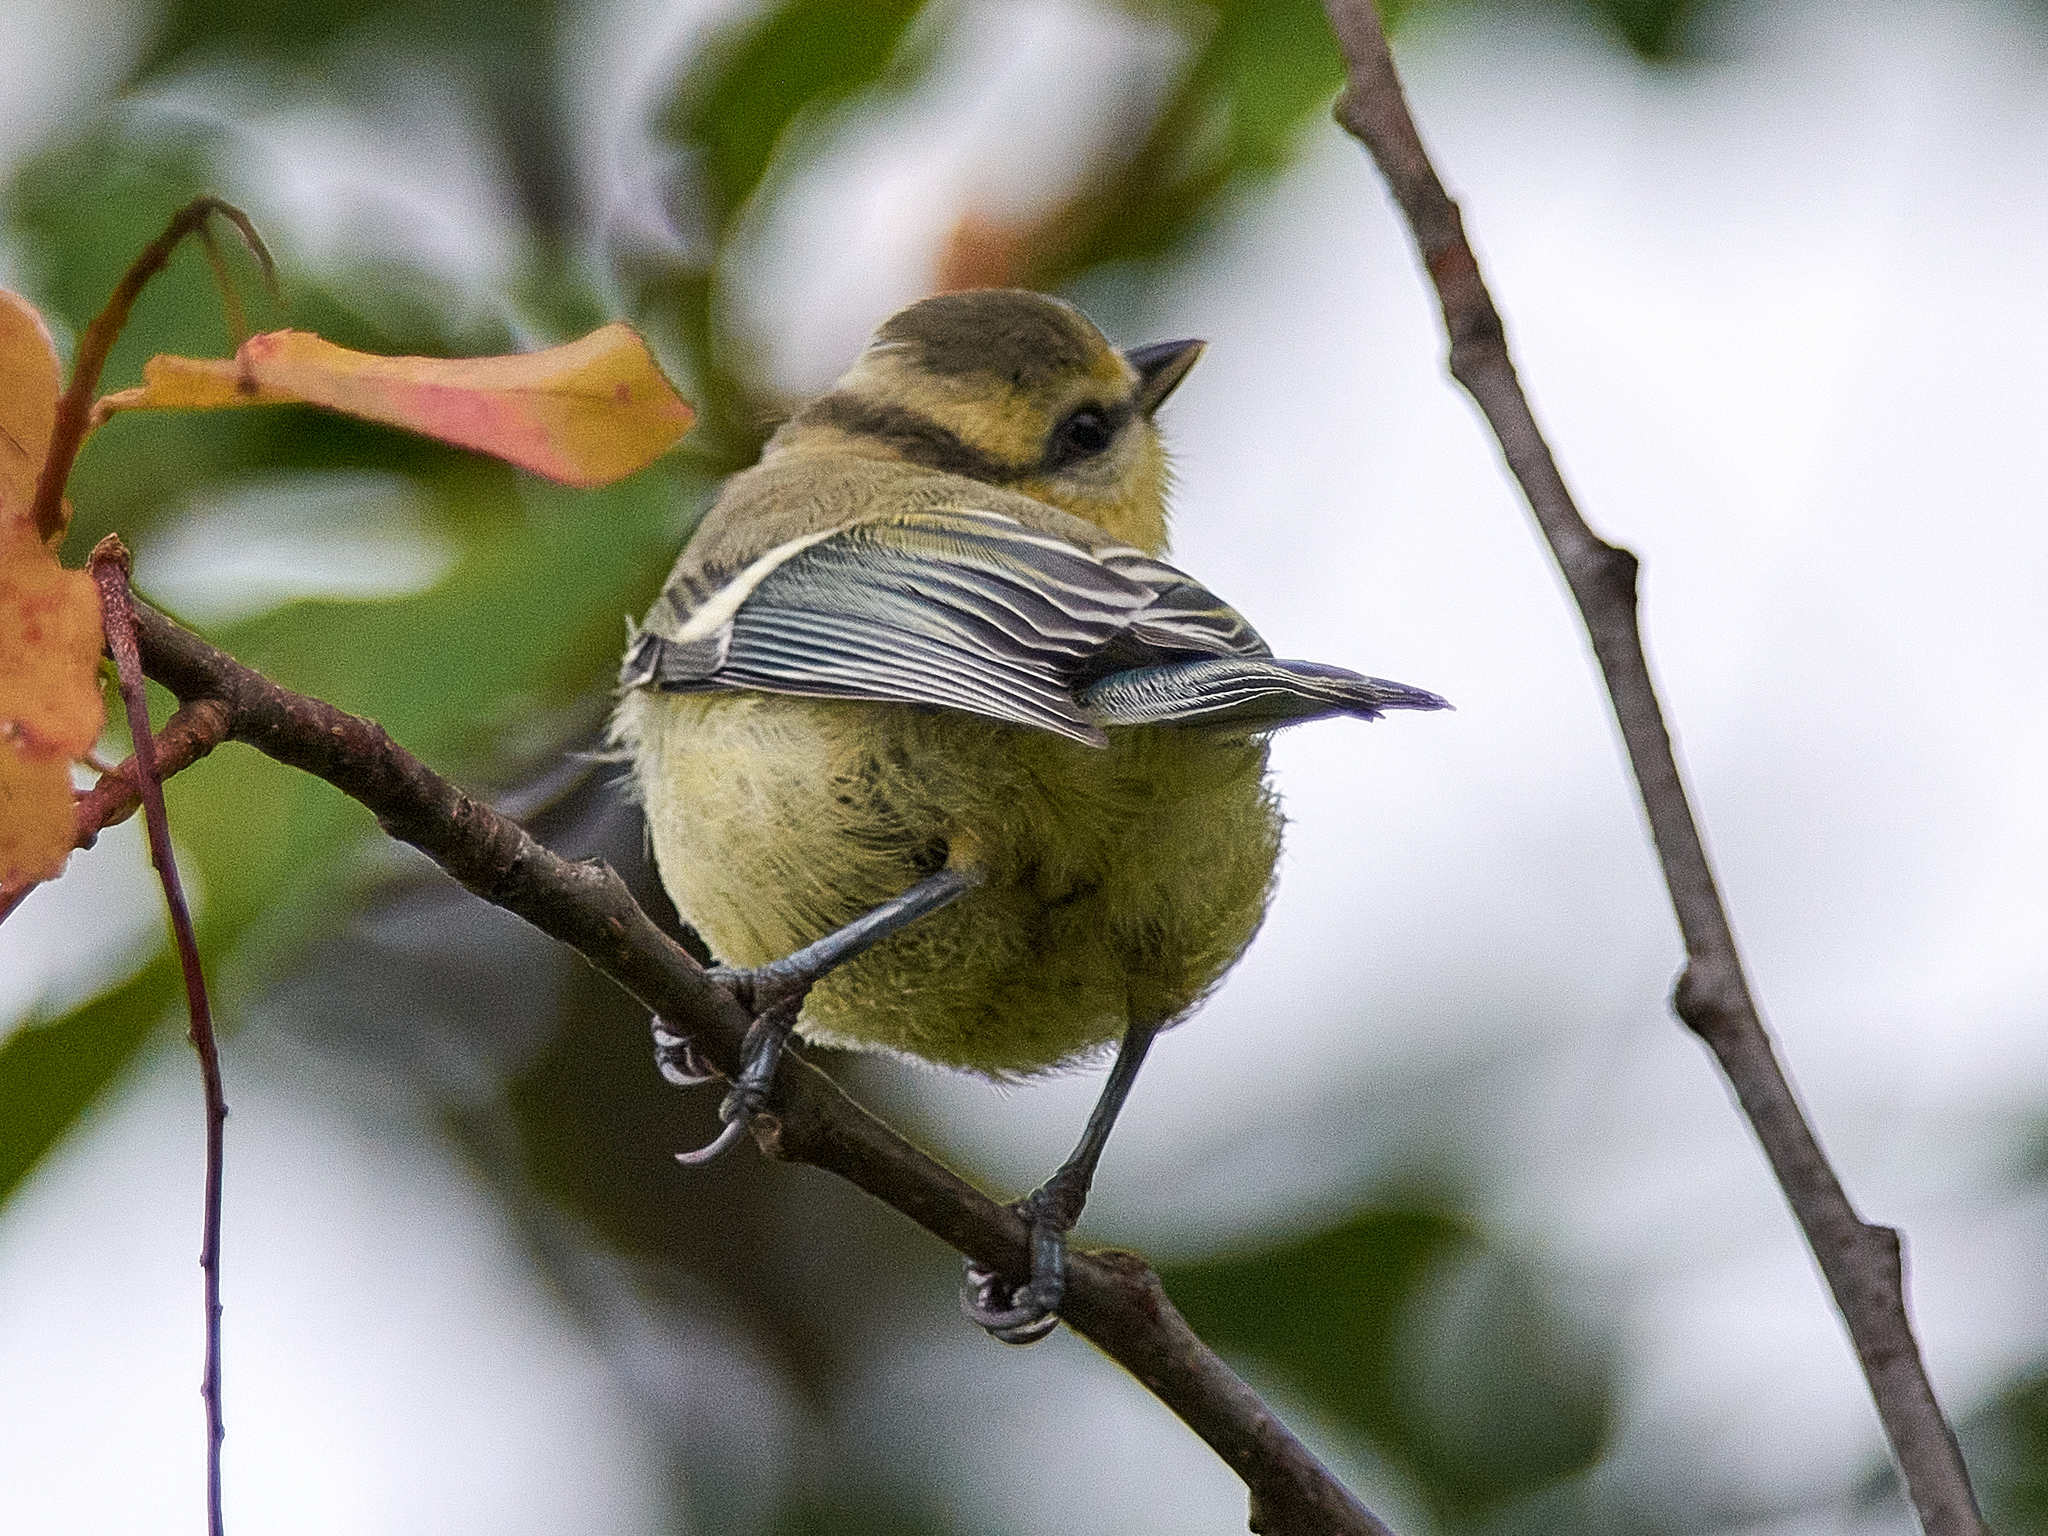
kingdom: Animalia
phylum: Chordata
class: Aves
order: Passeriformes
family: Paridae
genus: Cyanistes
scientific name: Cyanistes caeruleus
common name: Eurasian blue tit
